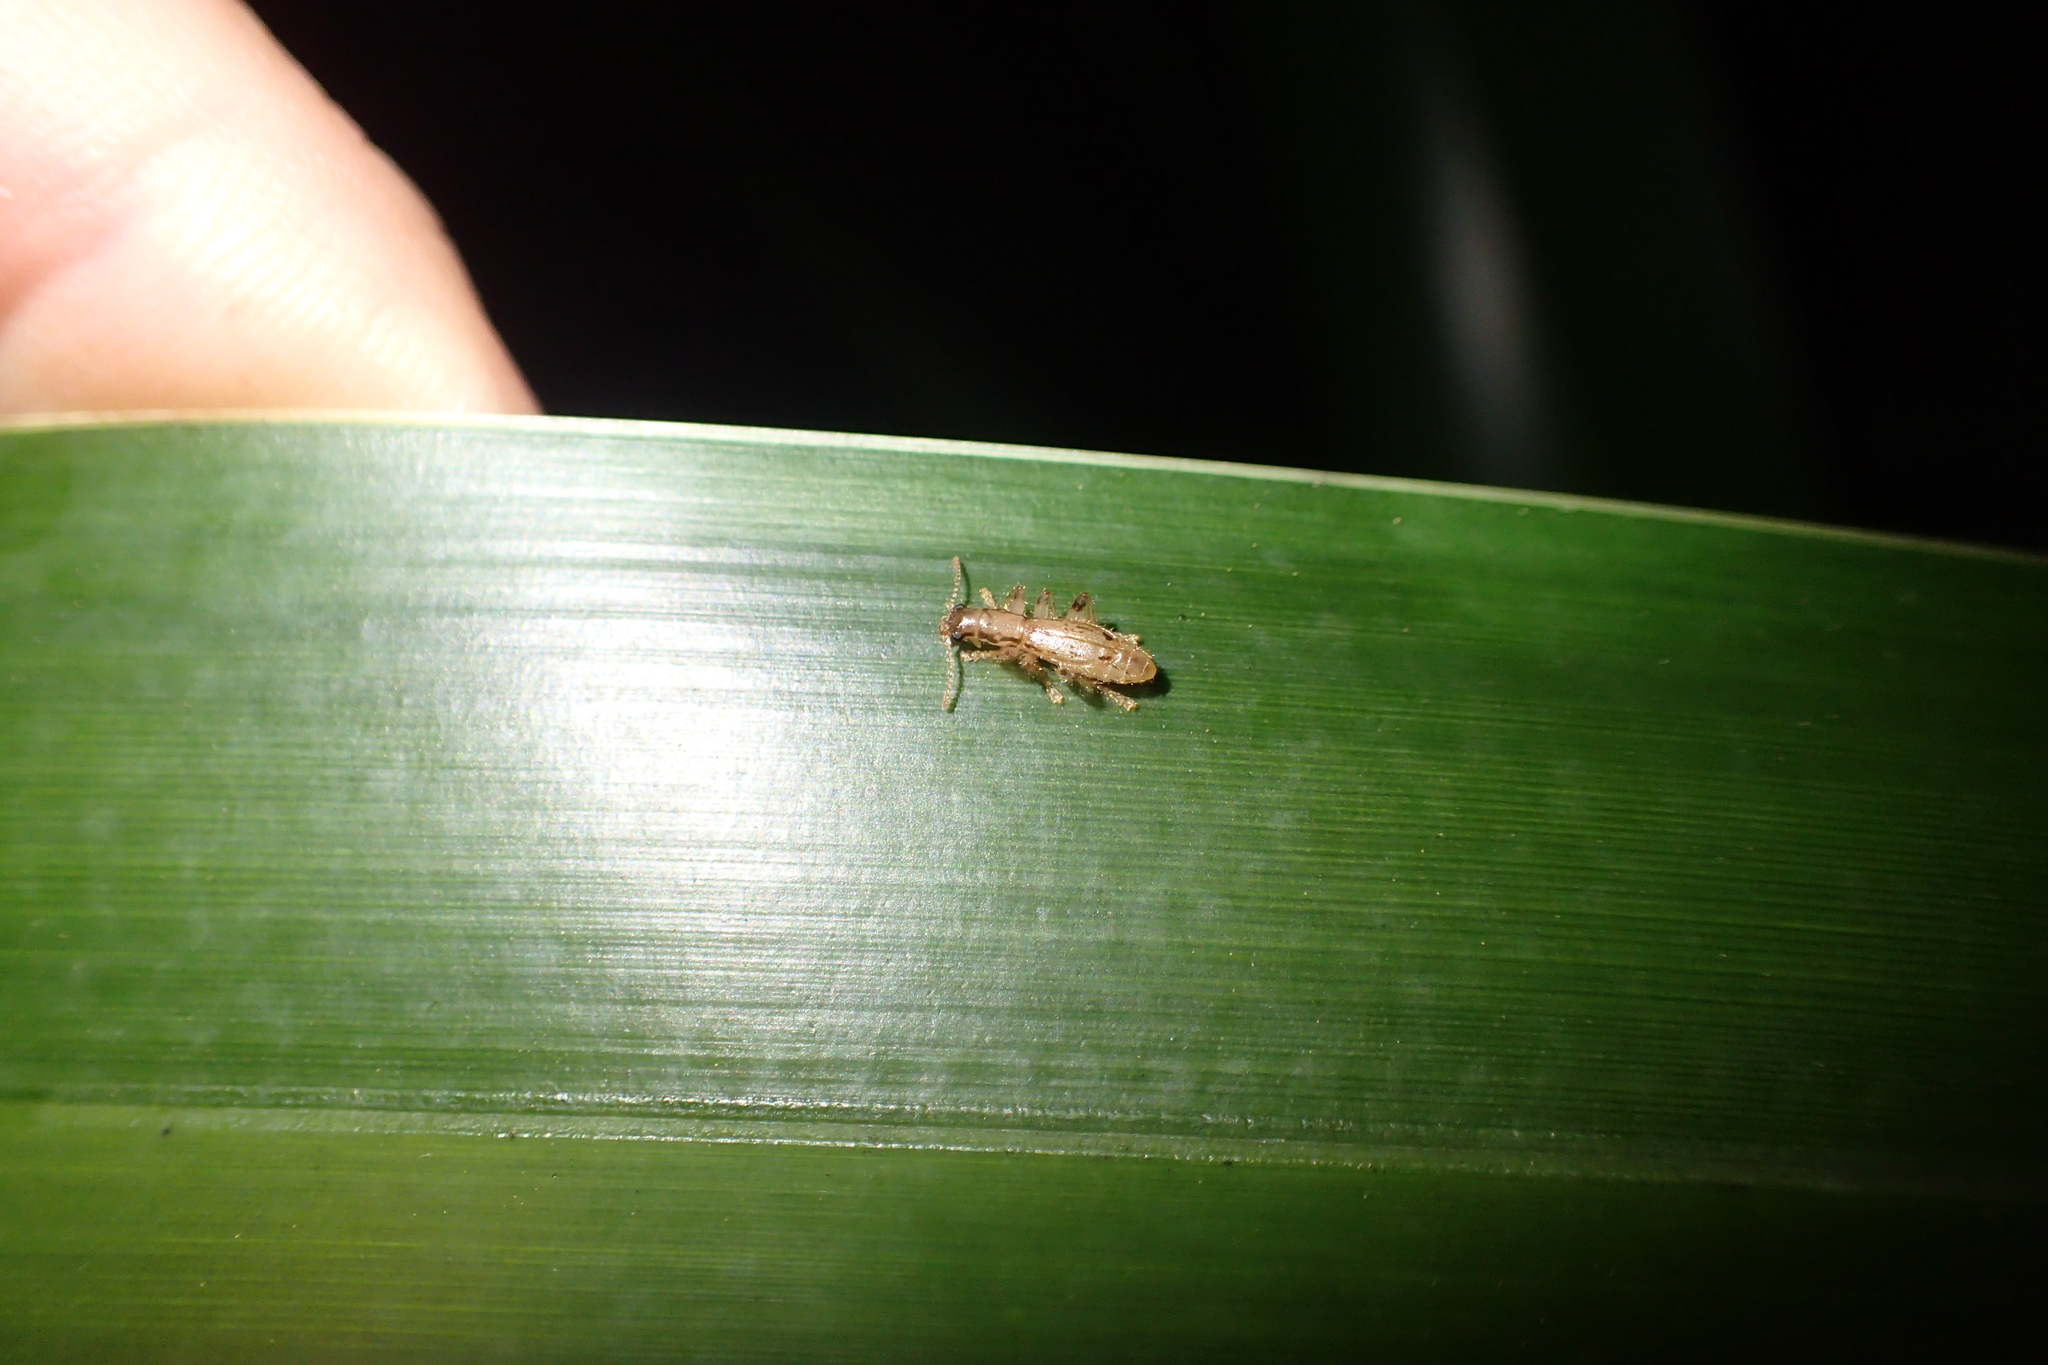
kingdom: Animalia
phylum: Arthropoda
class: Insecta
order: Coleoptera
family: Cleridae
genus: Lemidia
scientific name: Lemidia
